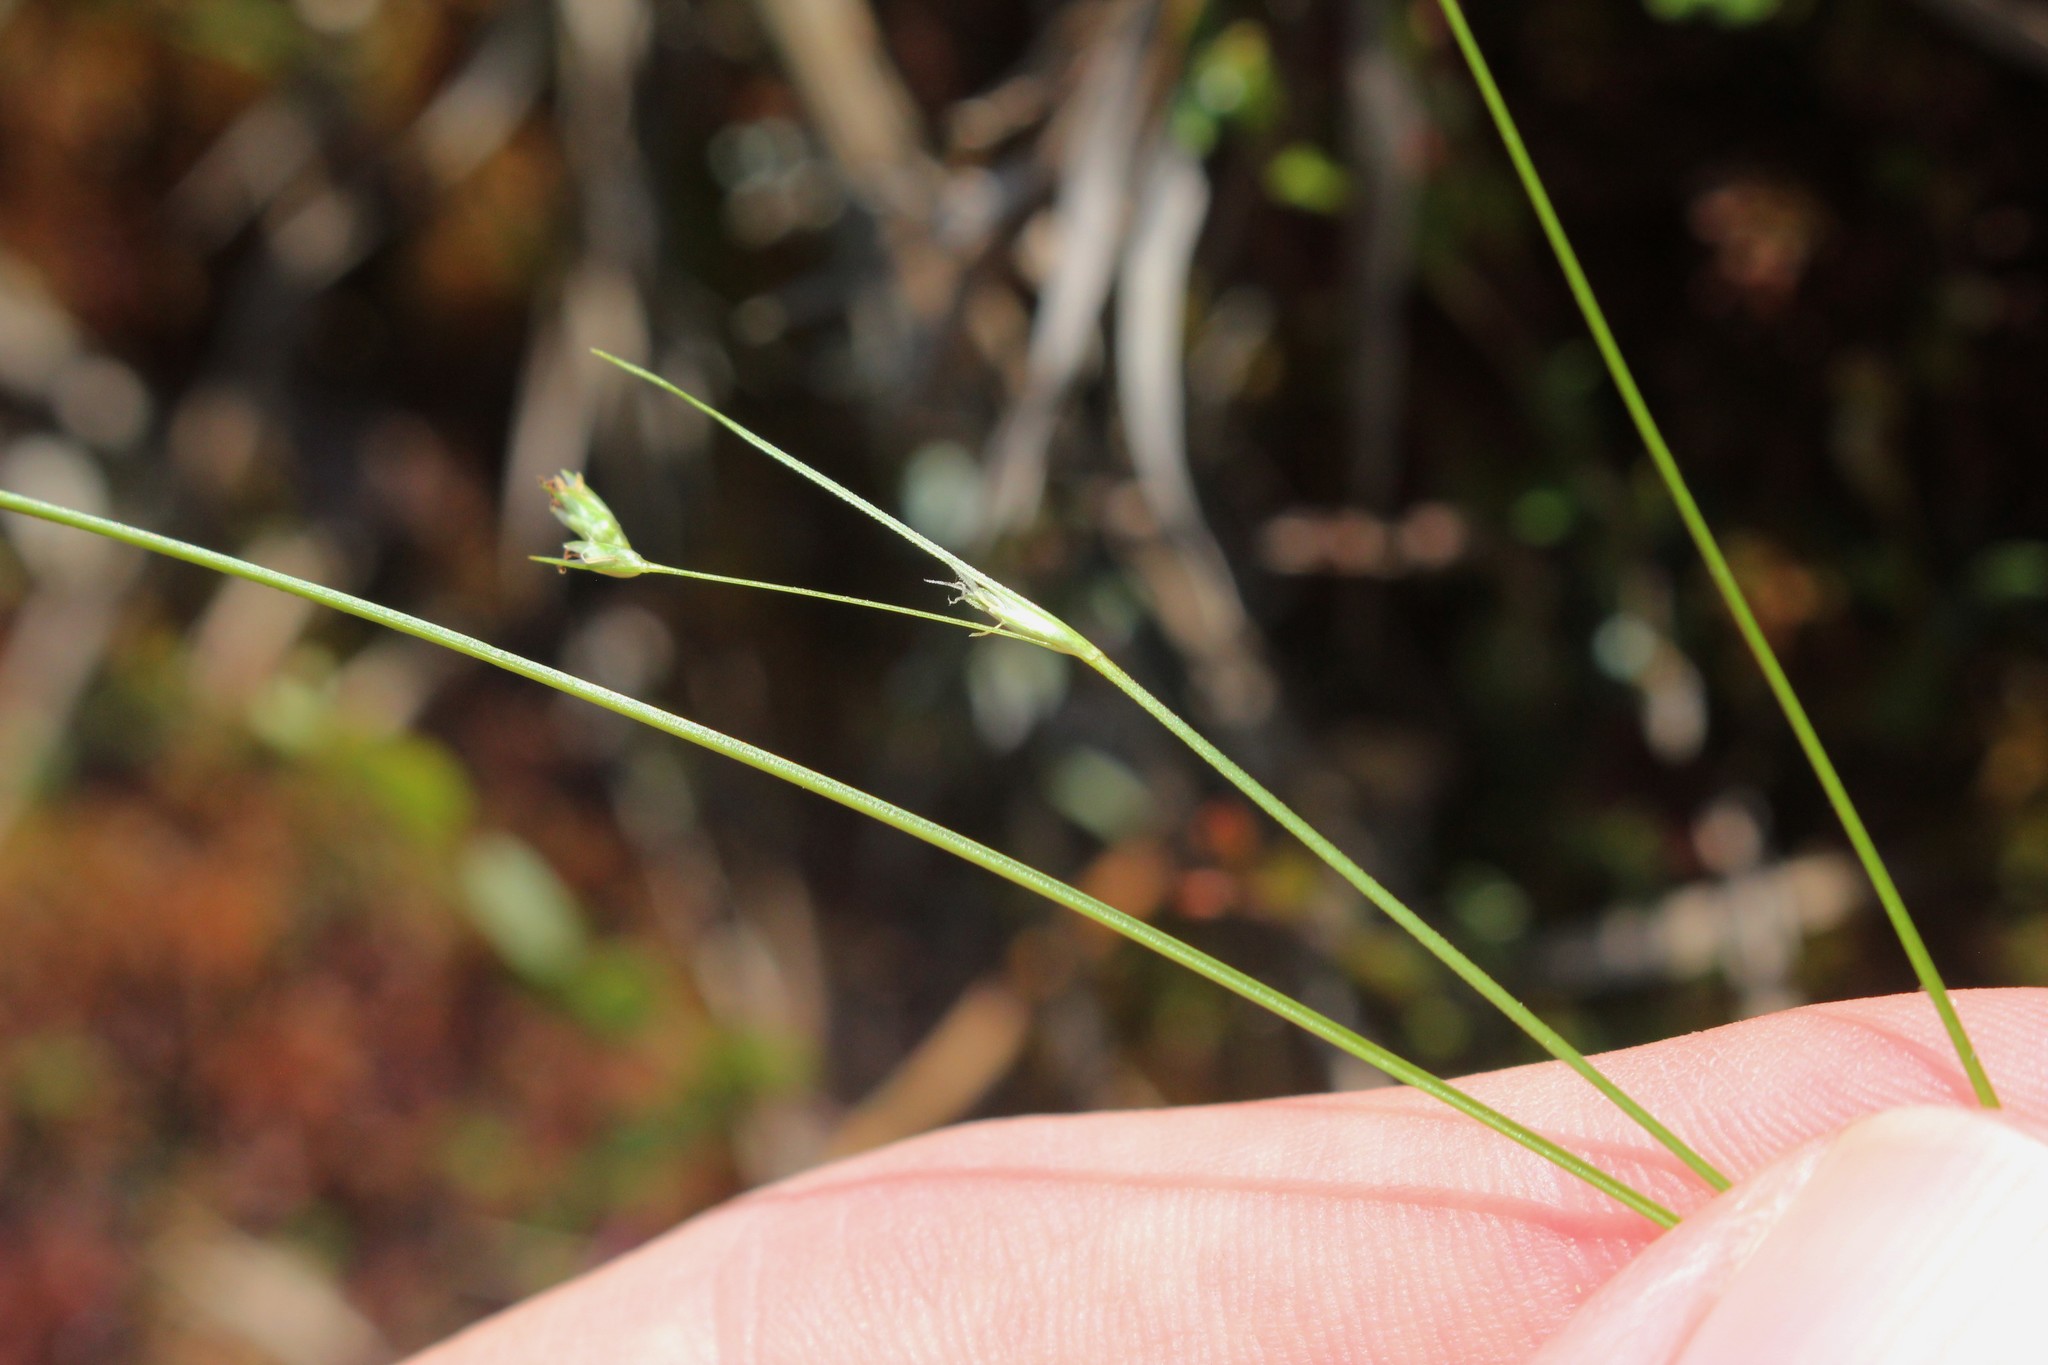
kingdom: Plantae
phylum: Tracheophyta
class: Liliopsida
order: Poales
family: Cyperaceae
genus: Carex
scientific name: Carex trisperma
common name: Three-seeded sedge
